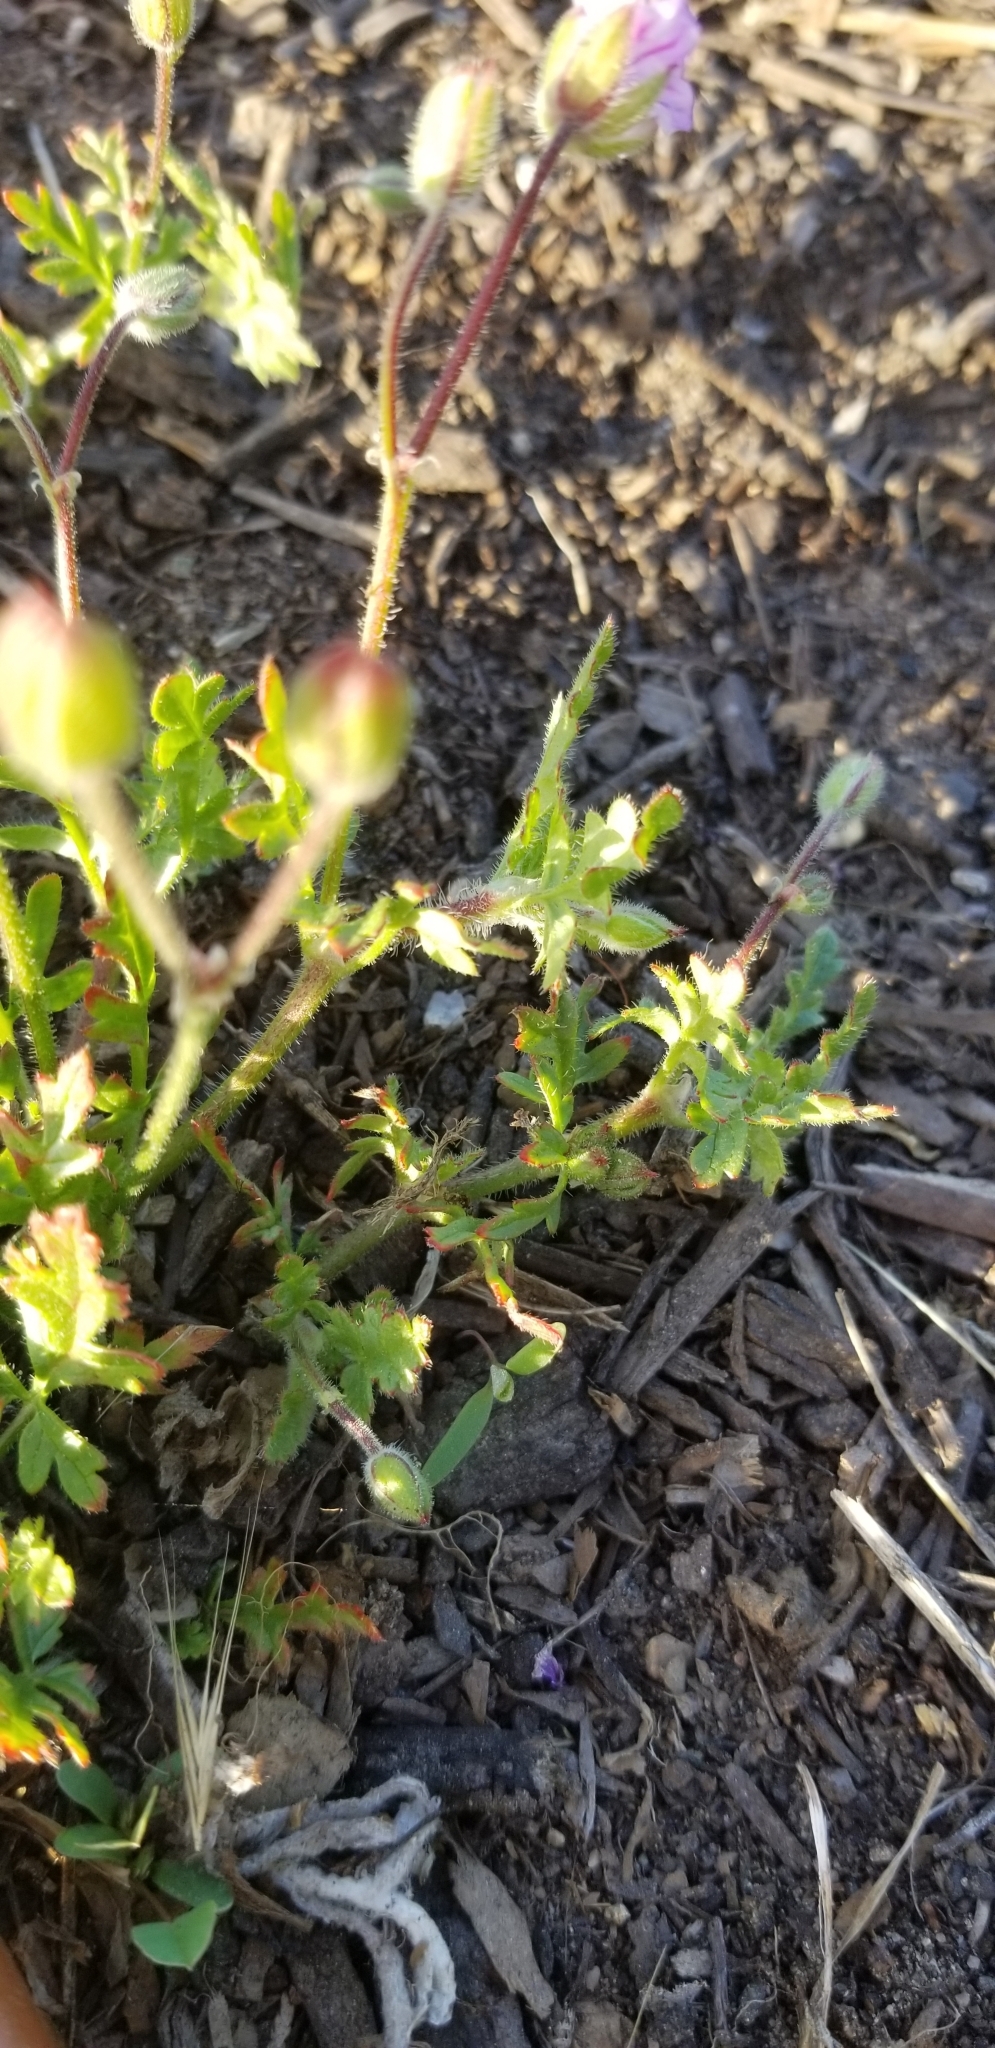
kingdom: Plantae
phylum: Tracheophyta
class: Magnoliopsida
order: Geraniales
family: Geraniaceae
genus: Erodium
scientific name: Erodium botrys
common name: Mediterranean stork's-bill
